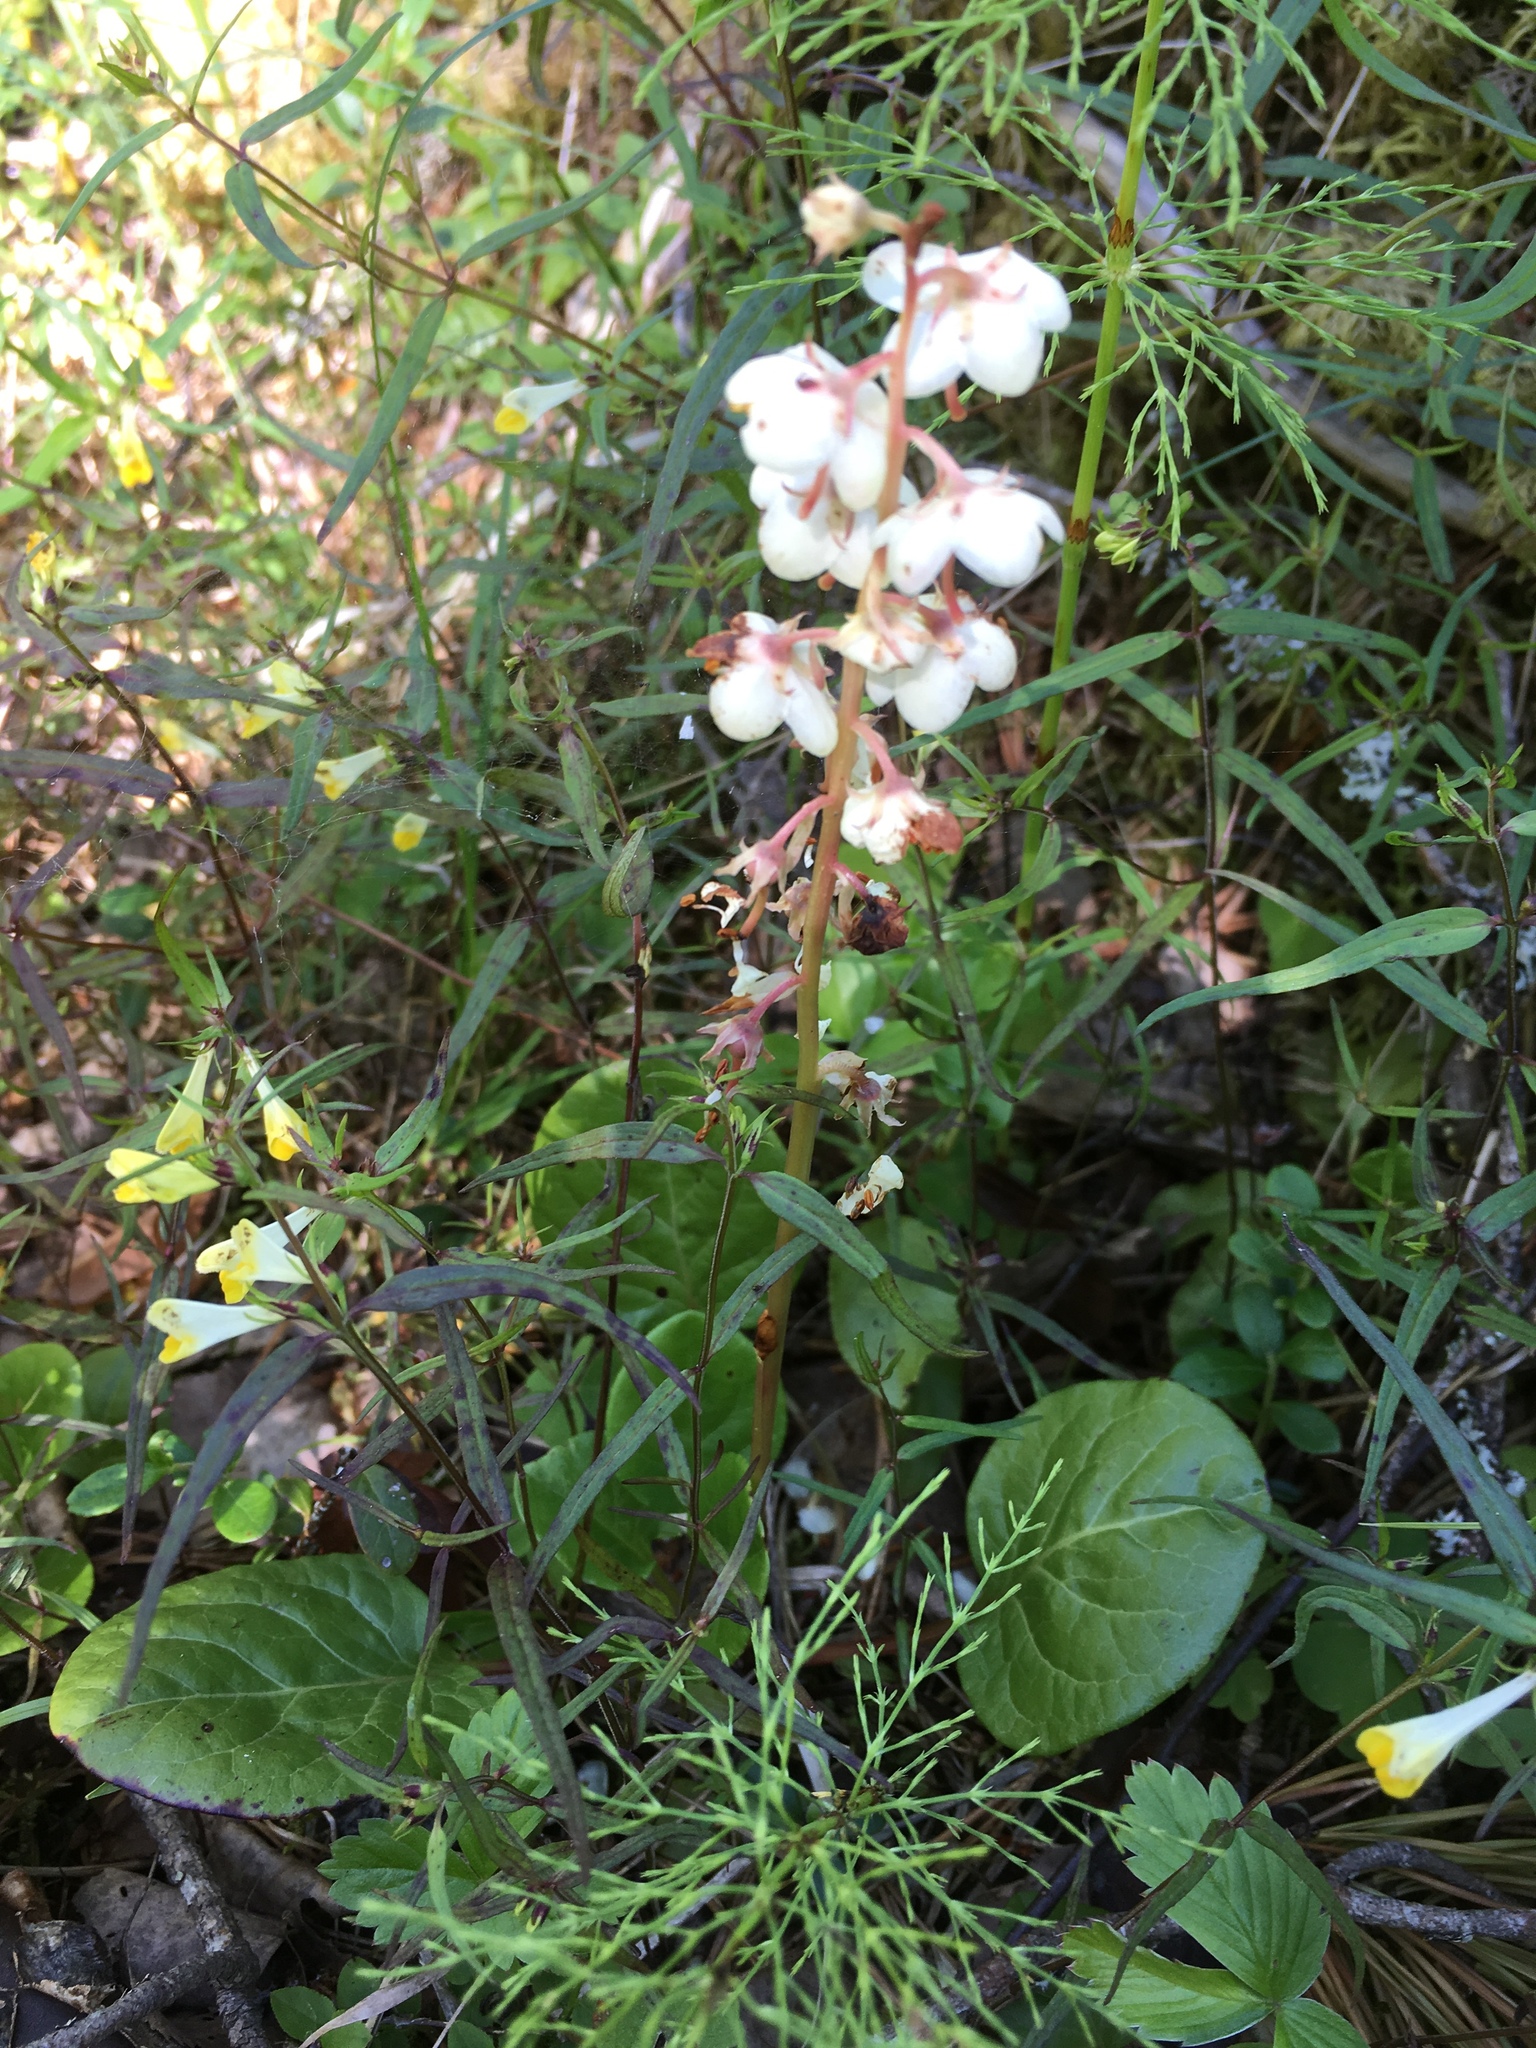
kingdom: Plantae
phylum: Tracheophyta
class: Magnoliopsida
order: Ericales
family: Ericaceae
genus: Pyrola
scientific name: Pyrola rotundifolia
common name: Round-leaved wintergreen
